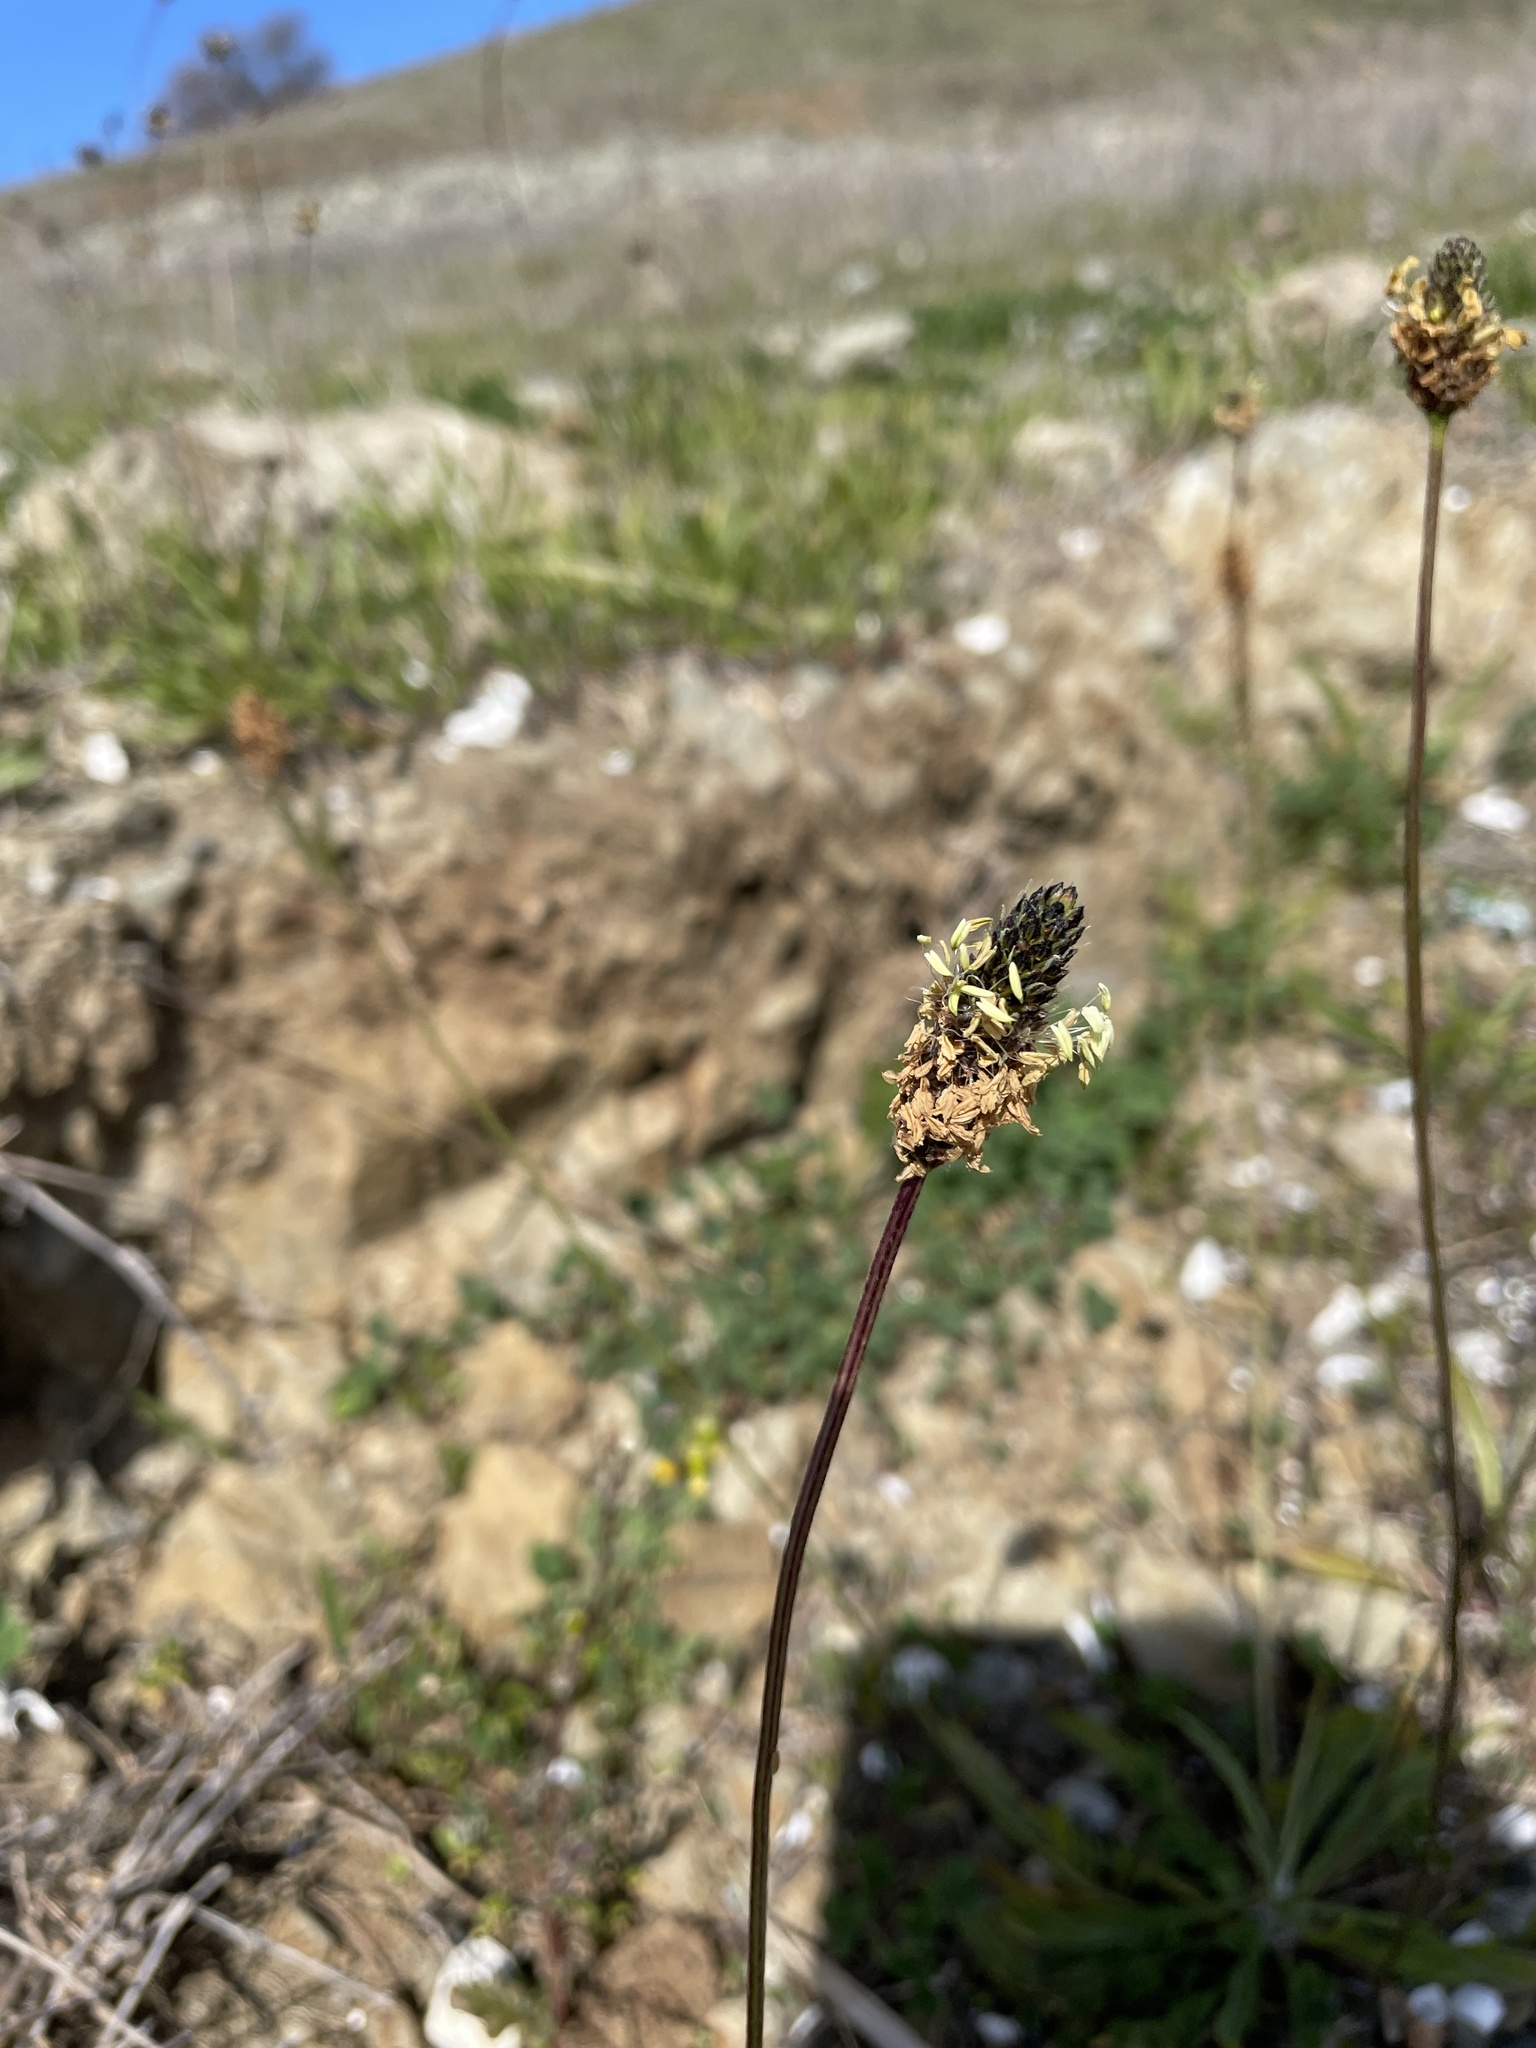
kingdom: Plantae
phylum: Tracheophyta
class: Magnoliopsida
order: Lamiales
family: Plantaginaceae
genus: Plantago
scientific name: Plantago lanceolata
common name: Ribwort plantain
